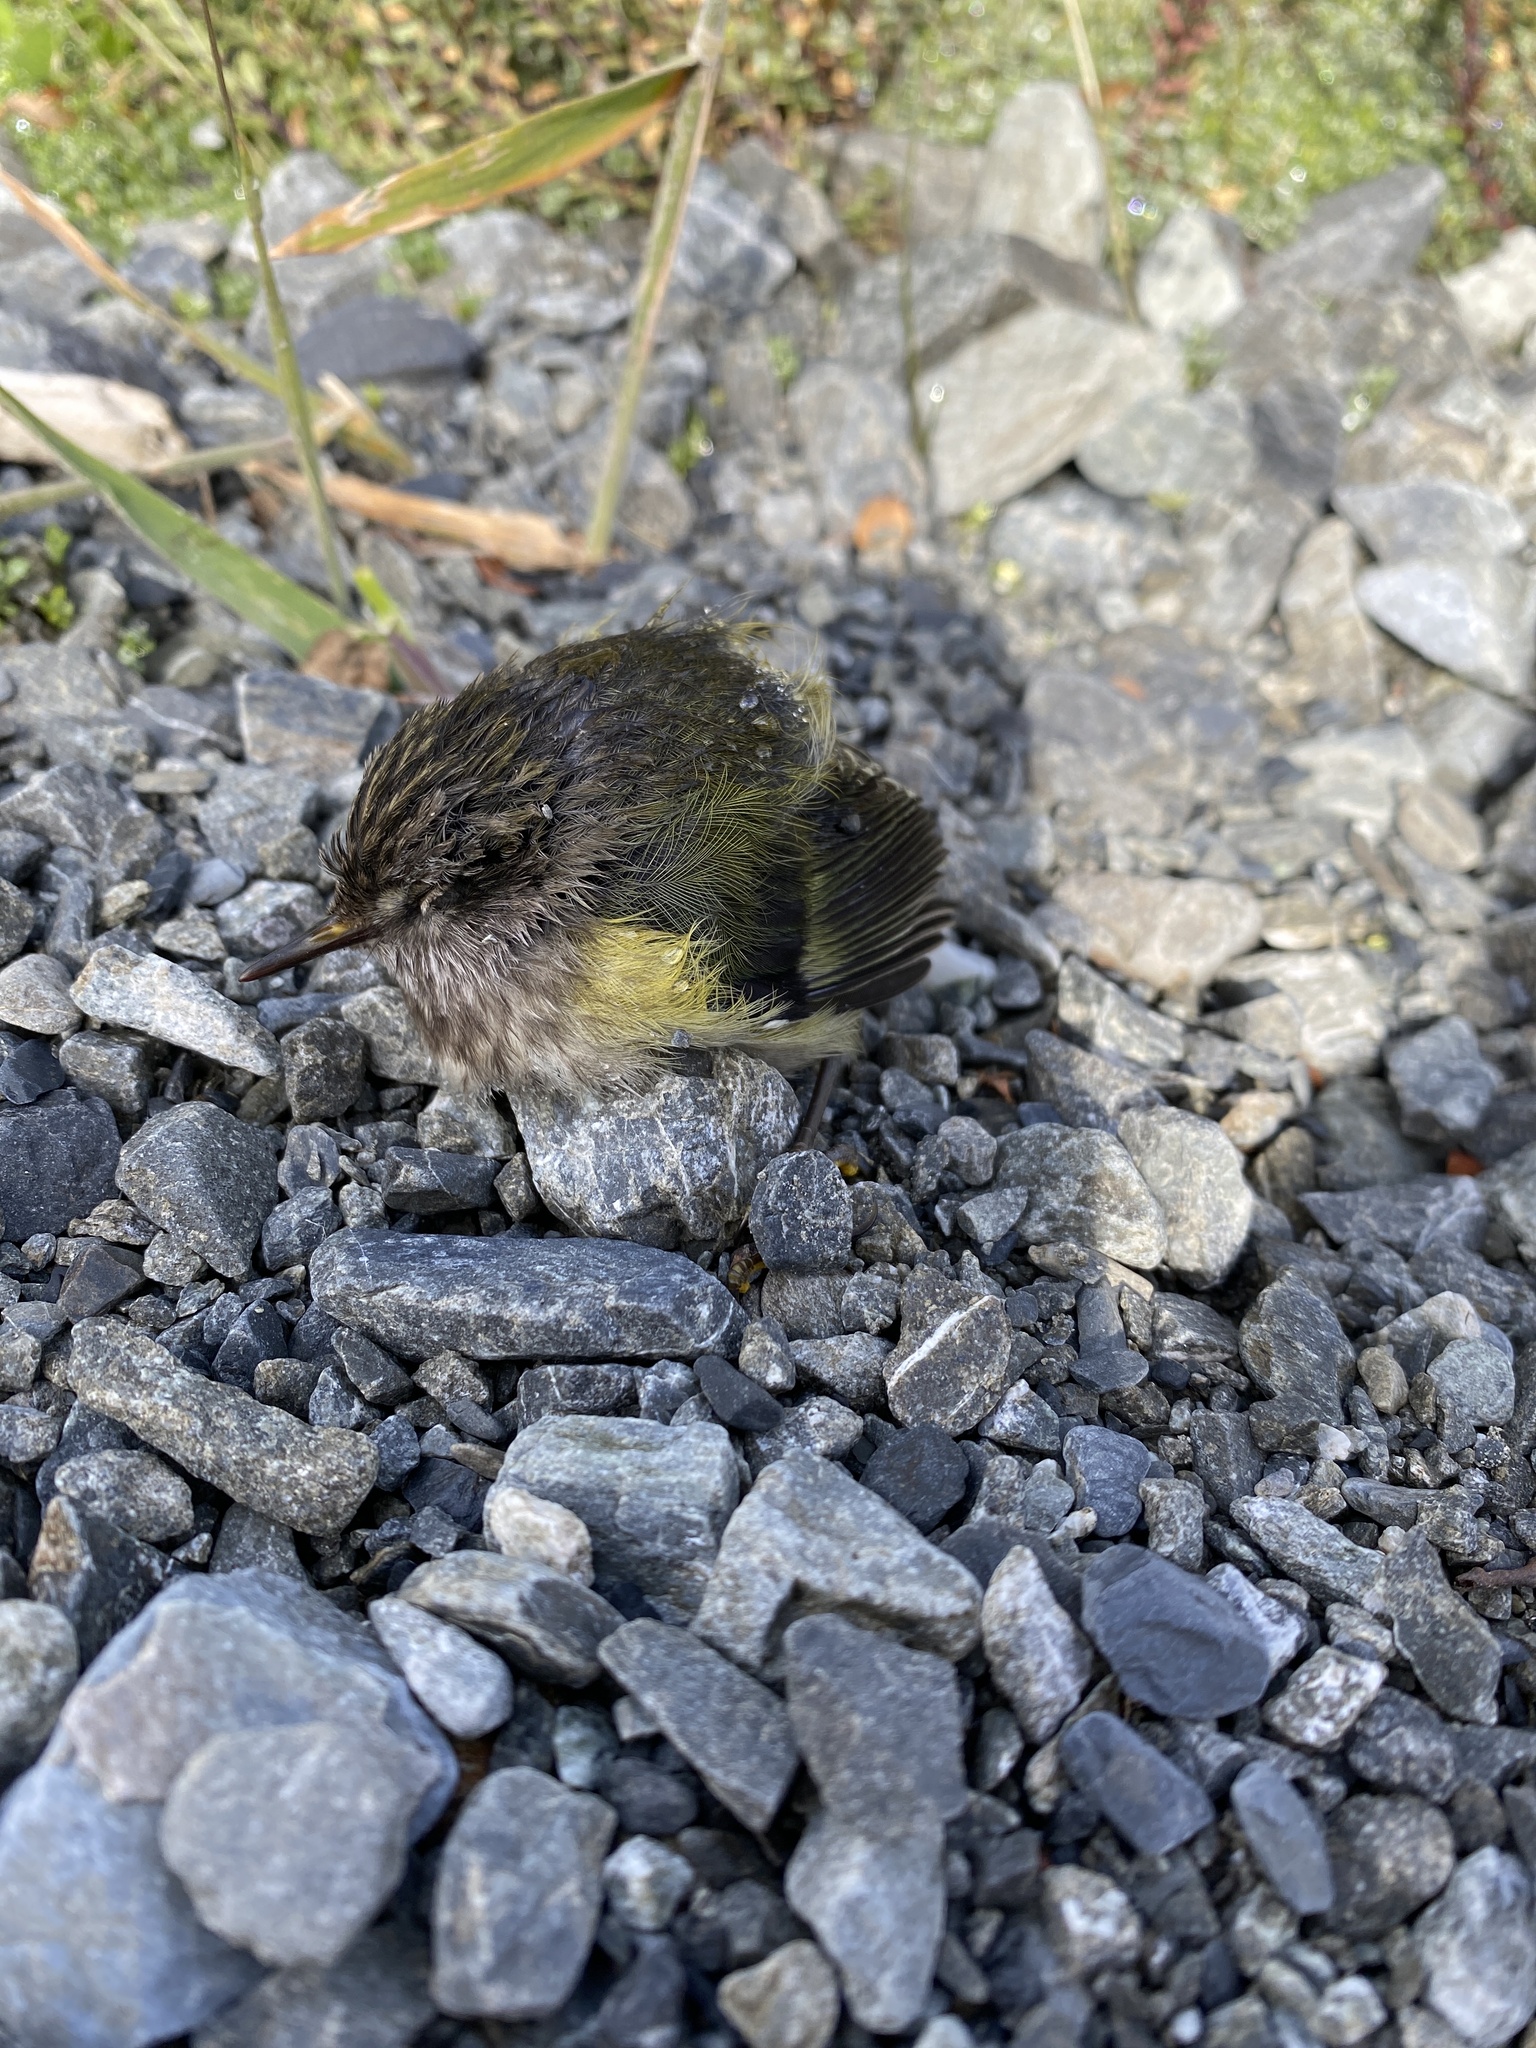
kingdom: Animalia
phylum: Chordata
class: Aves
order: Passeriformes
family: Acanthisittidae
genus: Acanthisitta
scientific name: Acanthisitta chloris
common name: Rifleman
